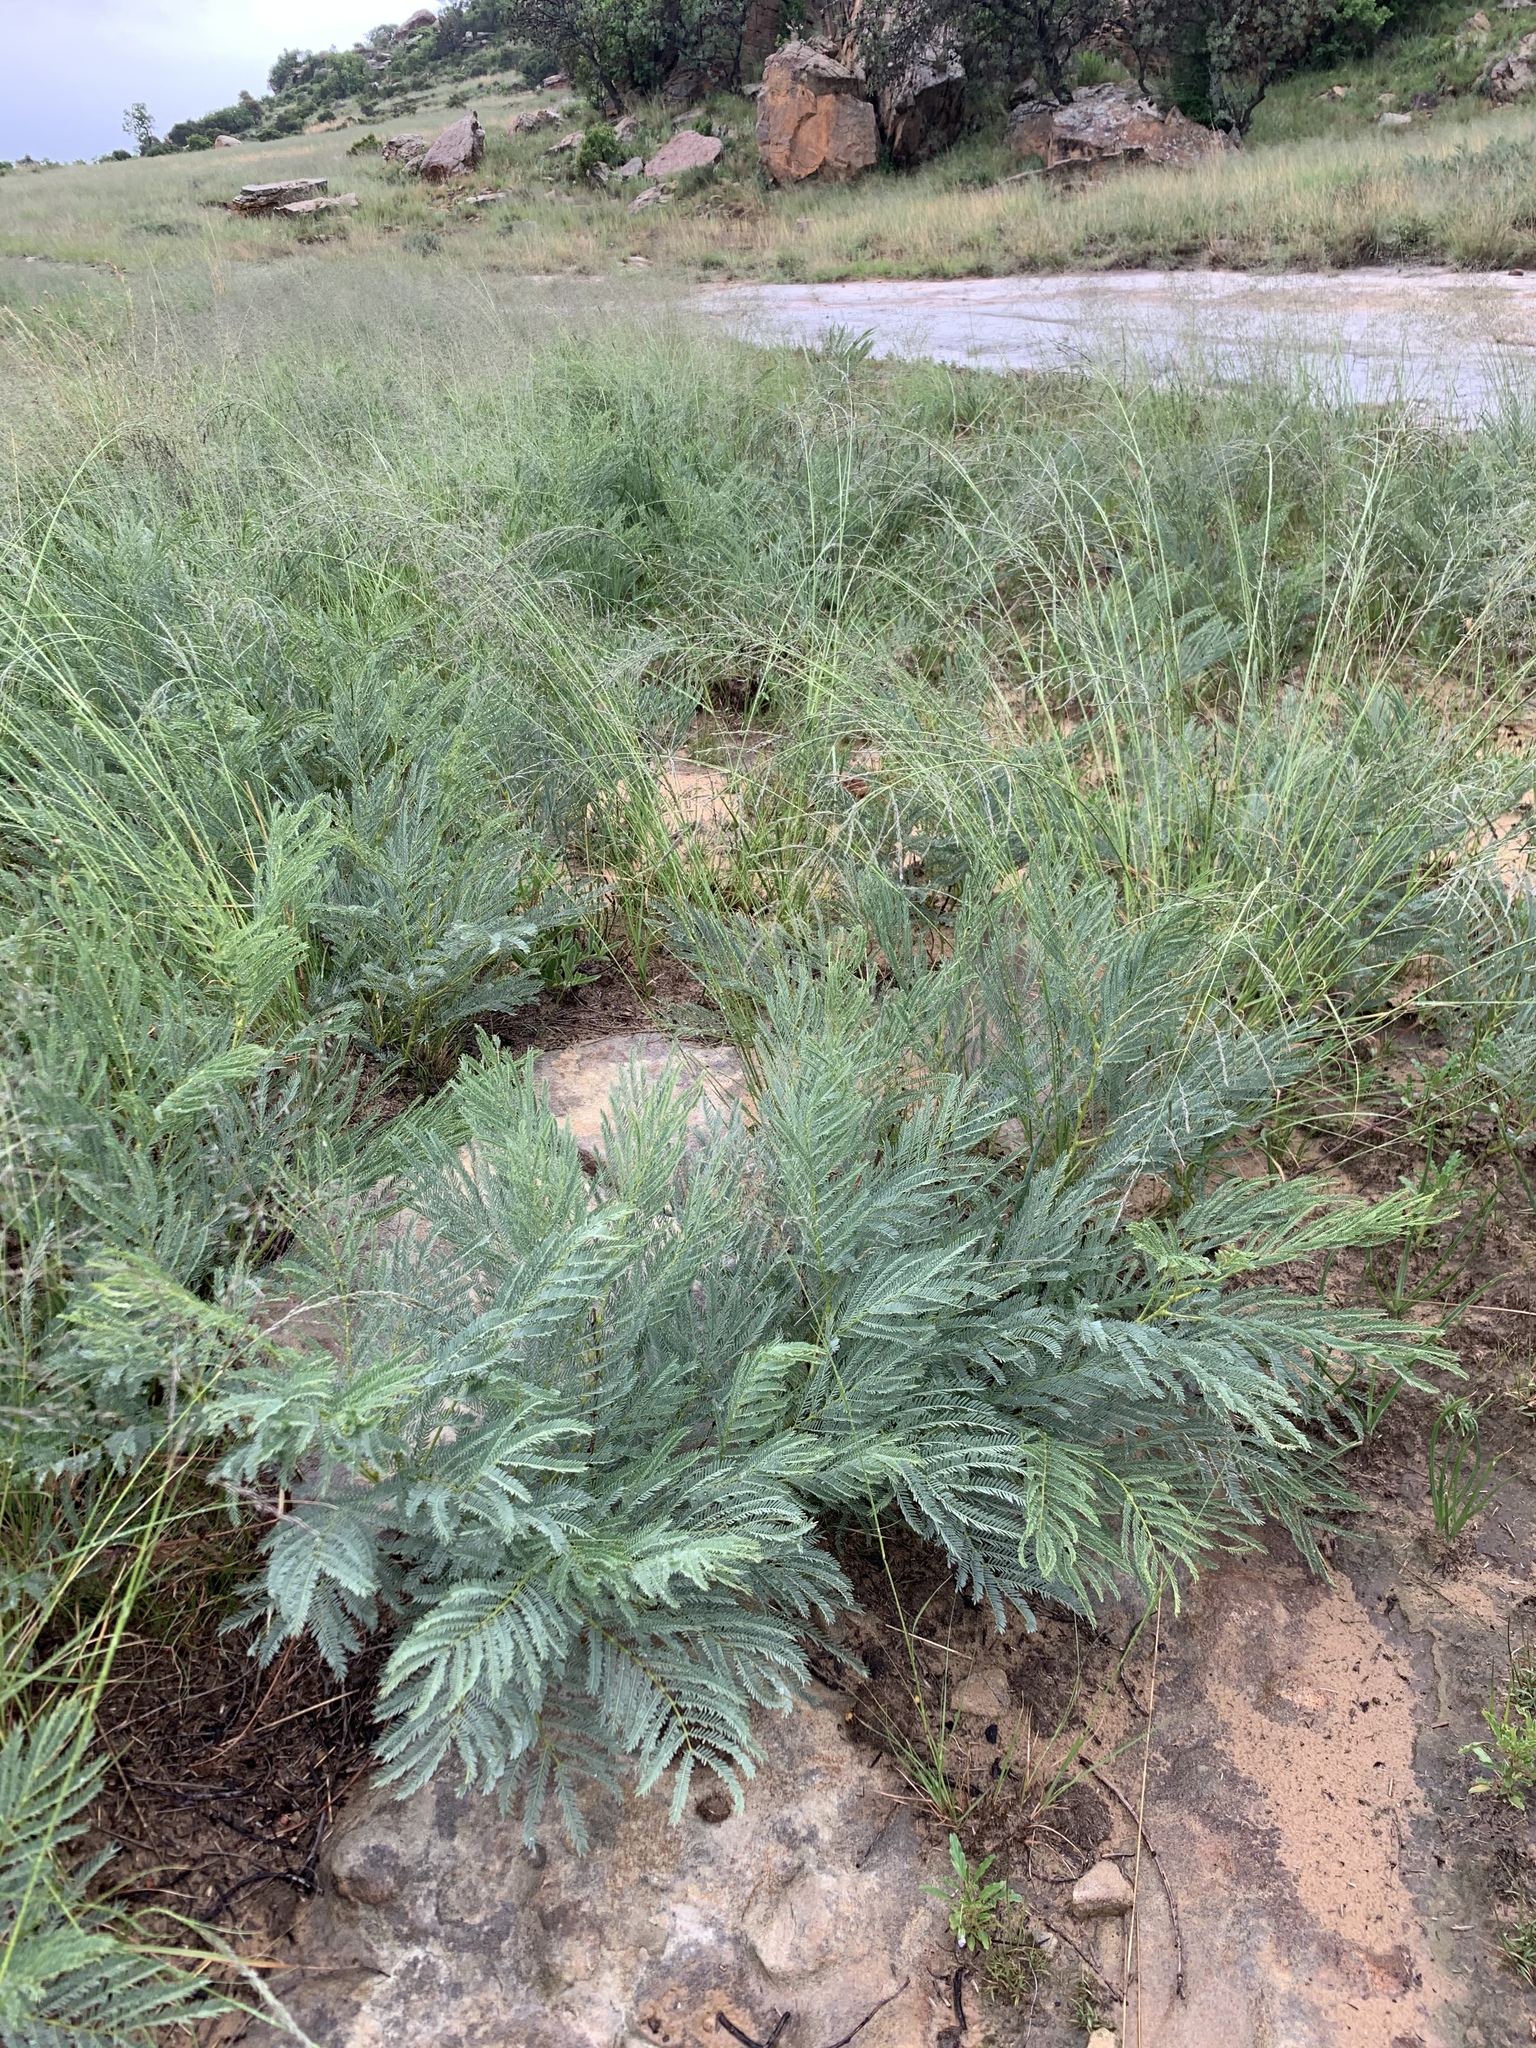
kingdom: Plantae
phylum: Tracheophyta
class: Magnoliopsida
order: Fabales
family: Fabaceae
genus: Elephantorrhiza
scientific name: Elephantorrhiza elephantina
